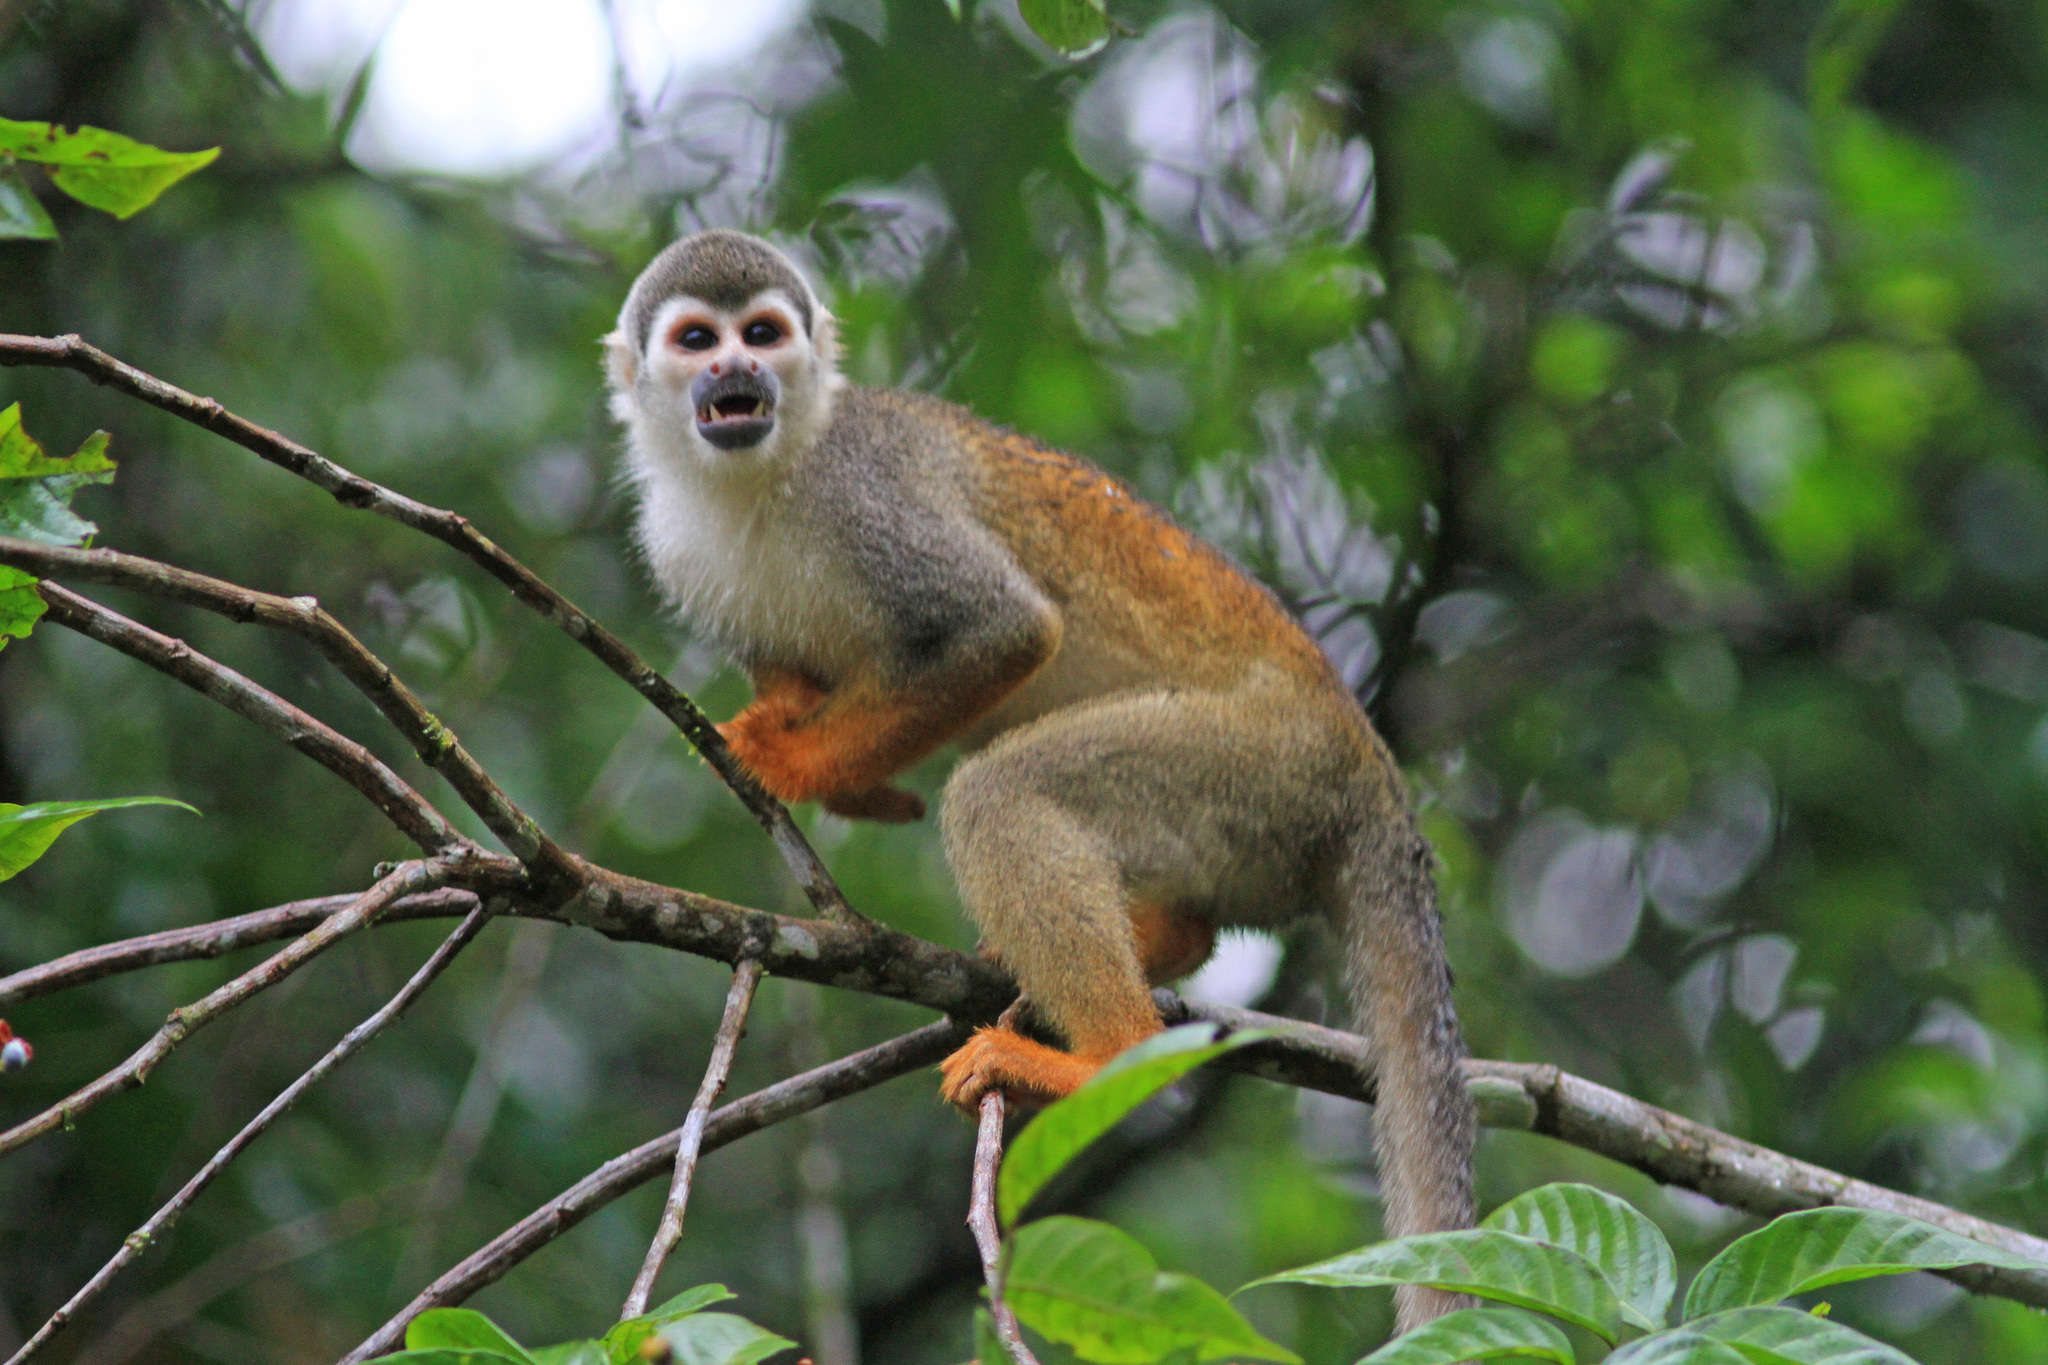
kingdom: Animalia
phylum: Chordata
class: Mammalia
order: Primates
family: Cebidae
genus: Saimiri
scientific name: Saimiri cassiquiarensis
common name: Humboldt’s squirrel monkey
